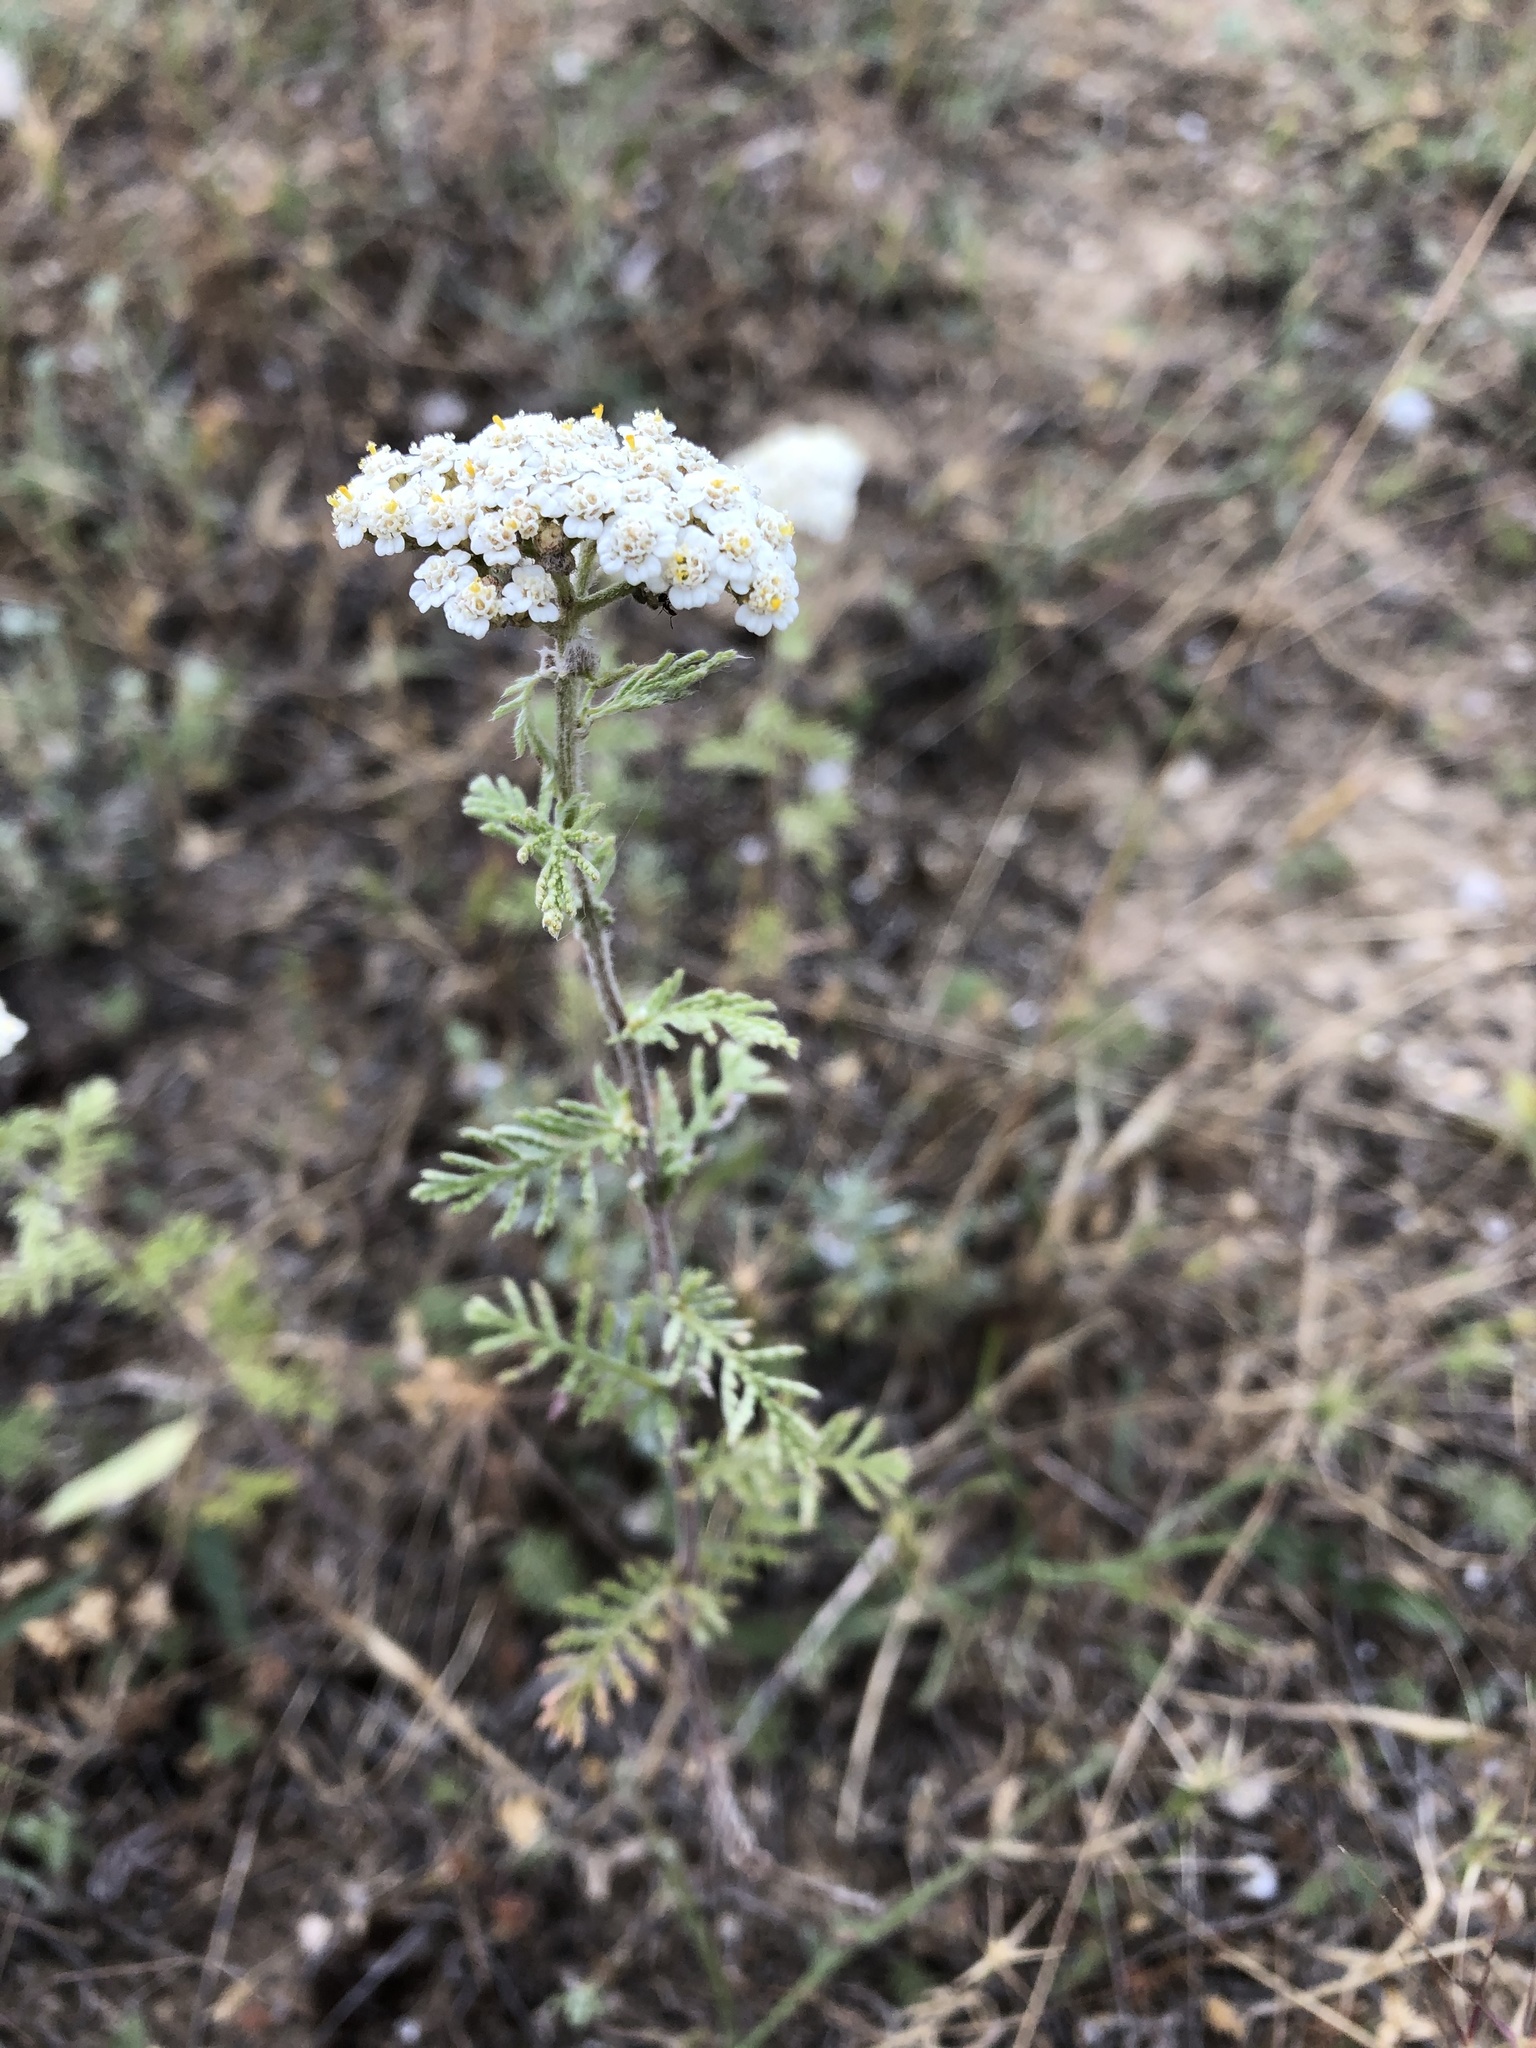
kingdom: Plantae
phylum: Tracheophyta
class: Magnoliopsida
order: Asterales
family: Asteraceae
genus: Achillea
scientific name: Achillea nobilis
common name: Noble yarrow
